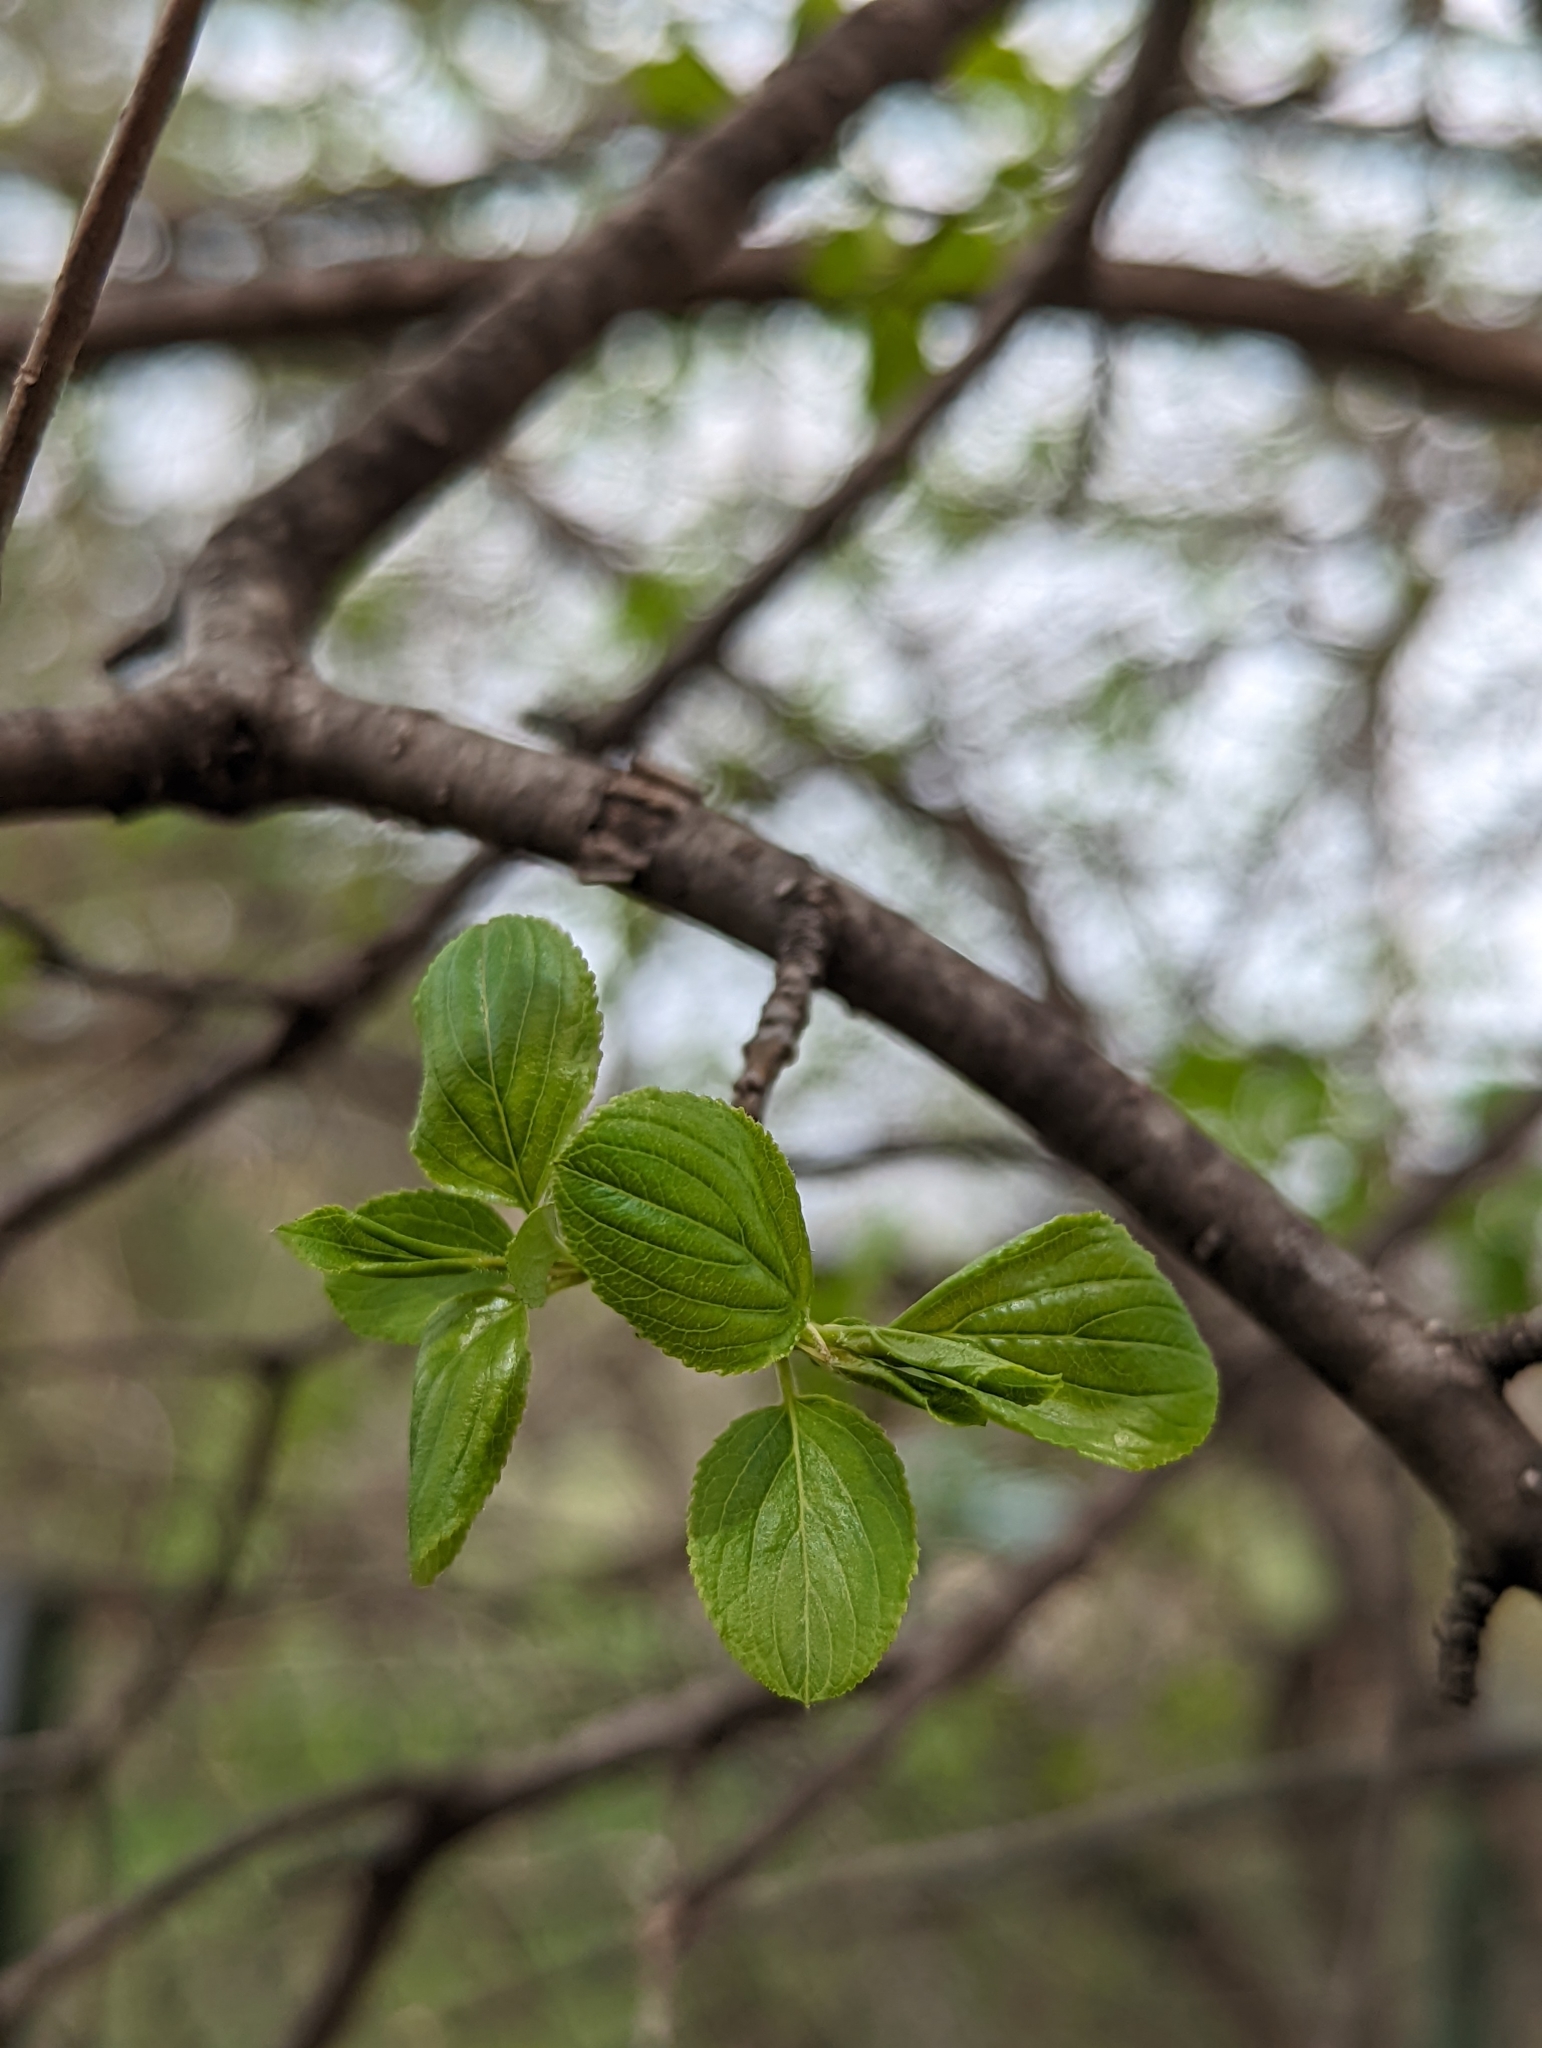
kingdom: Plantae
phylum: Tracheophyta
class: Magnoliopsida
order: Rosales
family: Rhamnaceae
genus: Rhamnus
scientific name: Rhamnus cathartica
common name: Common buckthorn
